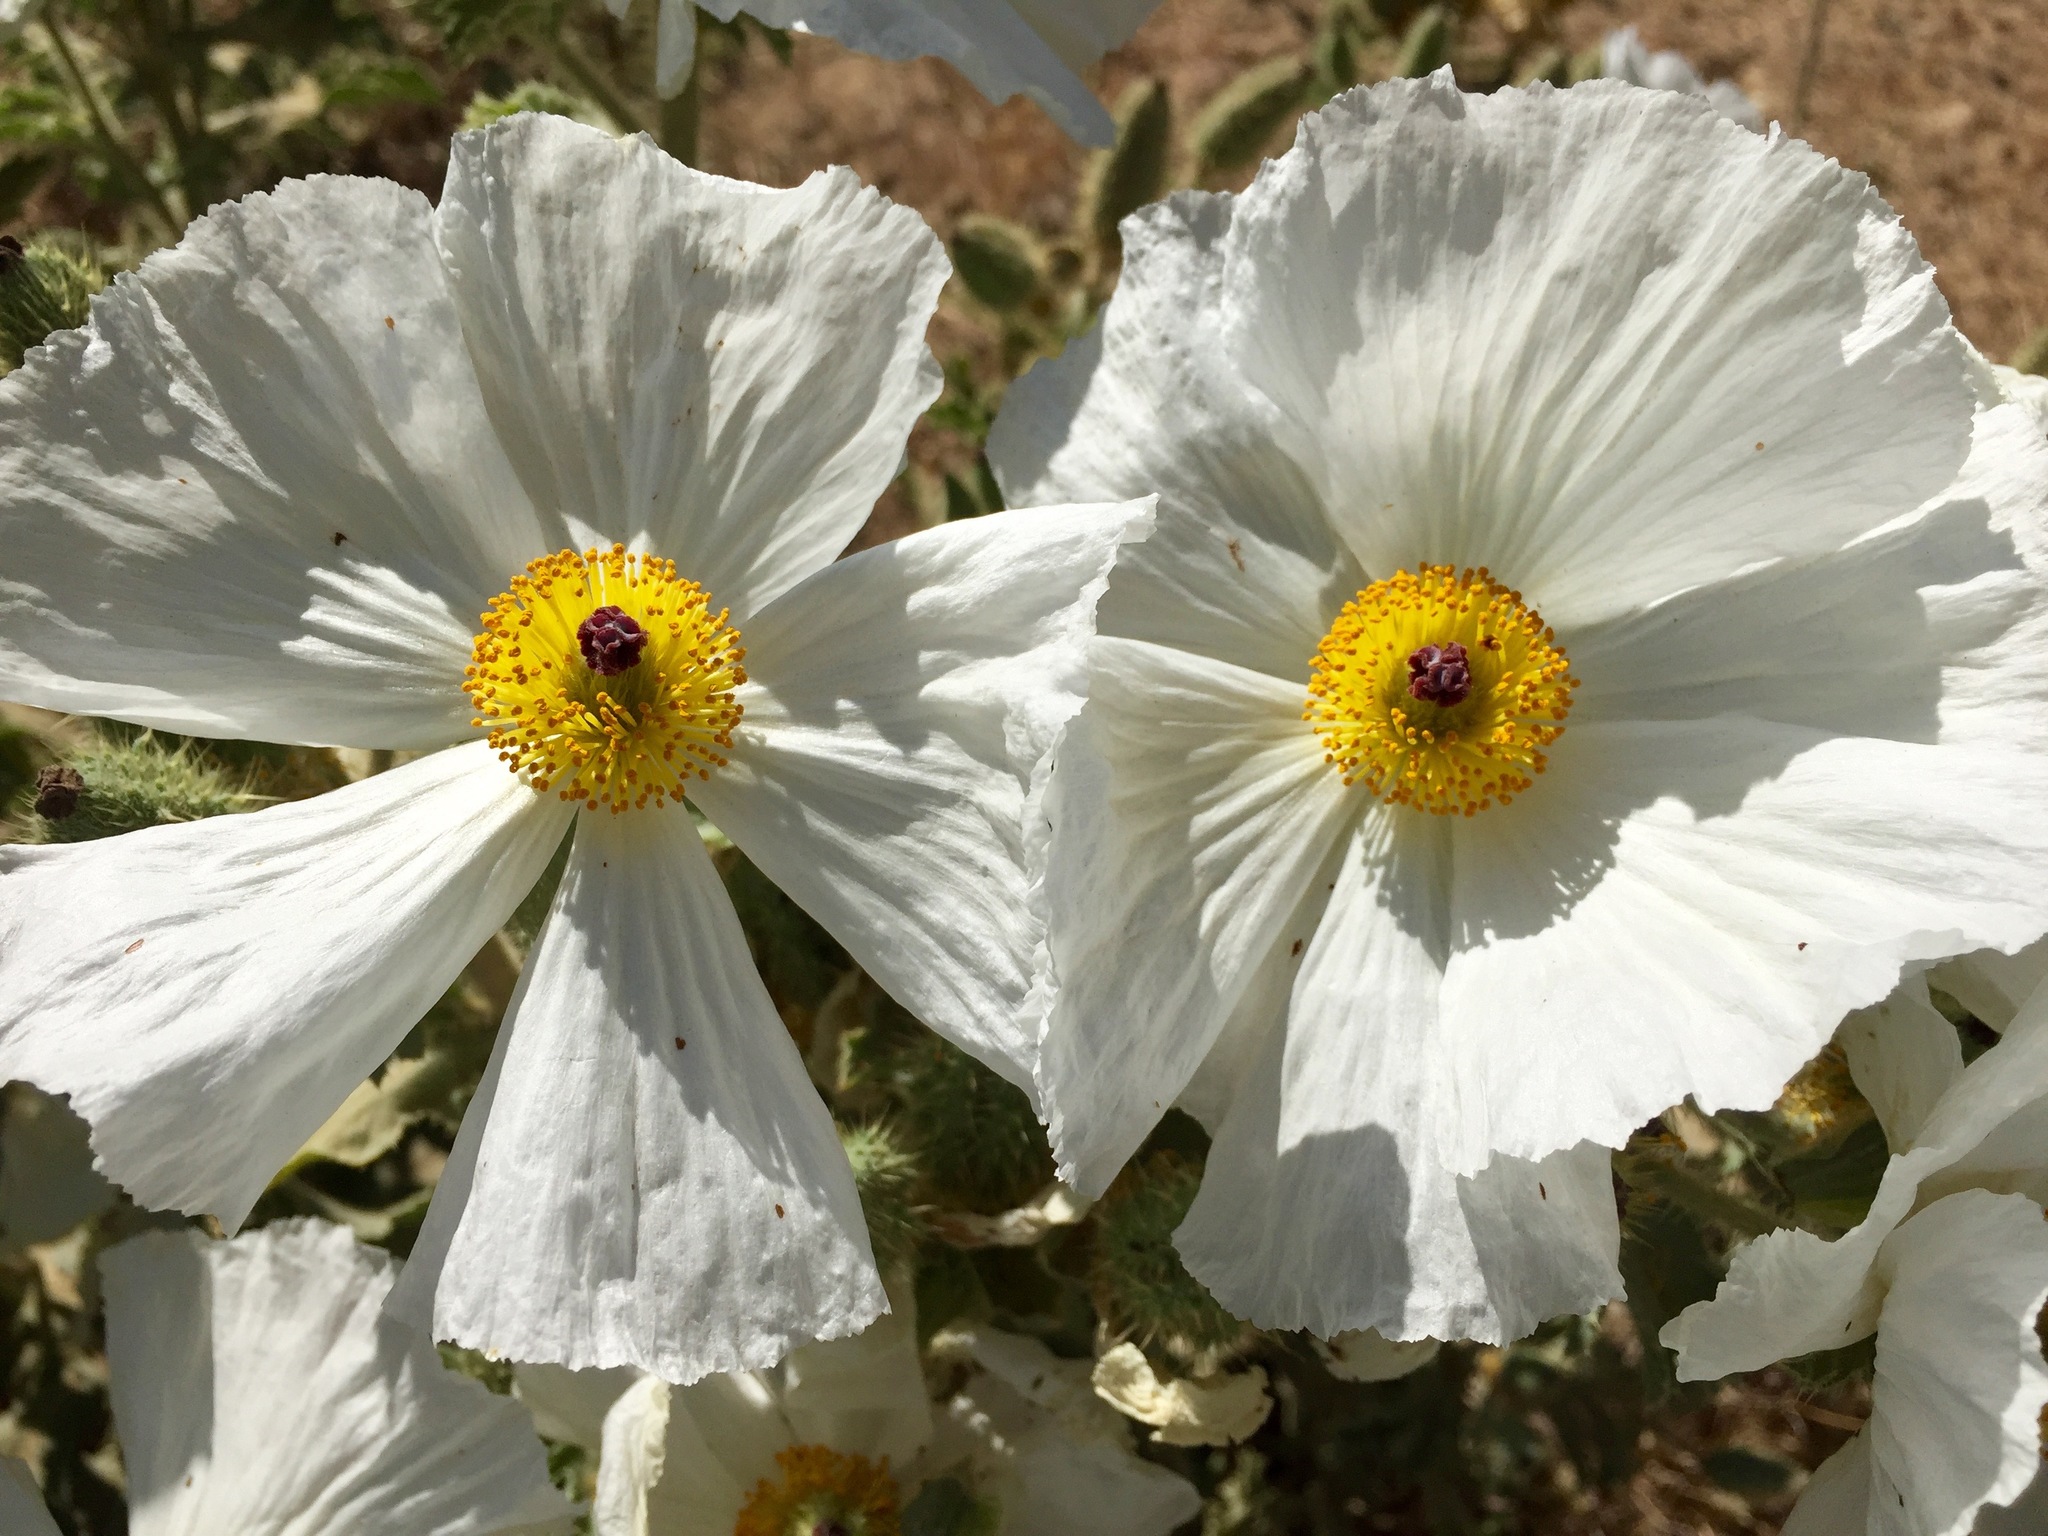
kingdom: Plantae
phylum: Tracheophyta
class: Magnoliopsida
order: Ranunculales
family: Papaveraceae
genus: Argemone
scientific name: Argemone munita
